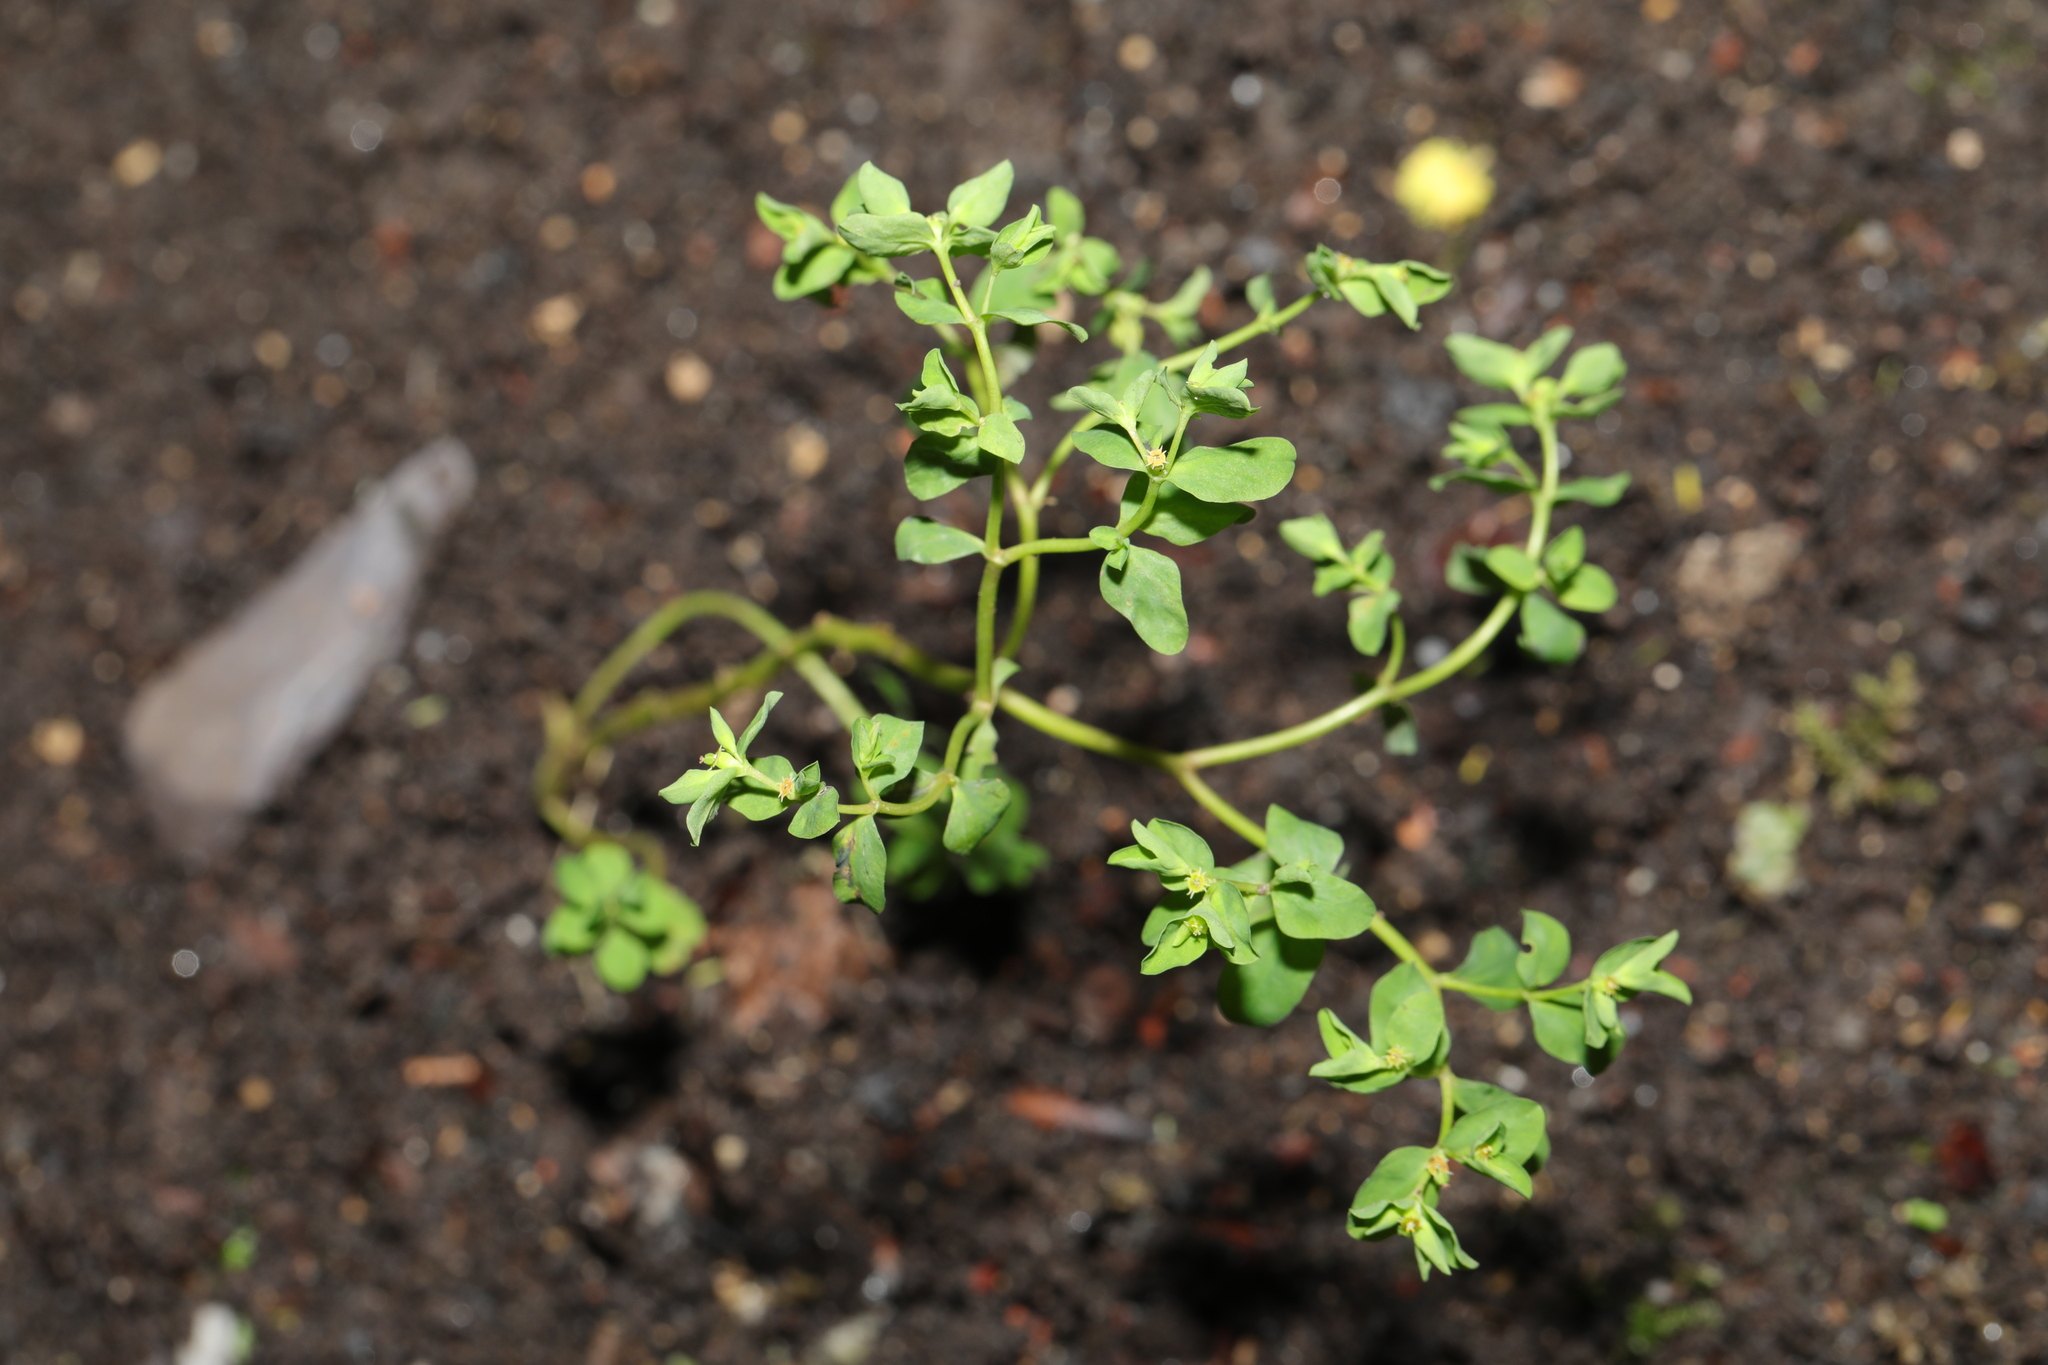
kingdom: Plantae
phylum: Tracheophyta
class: Magnoliopsida
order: Malpighiales
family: Euphorbiaceae
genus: Euphorbia
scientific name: Euphorbia peplus
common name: Petty spurge
